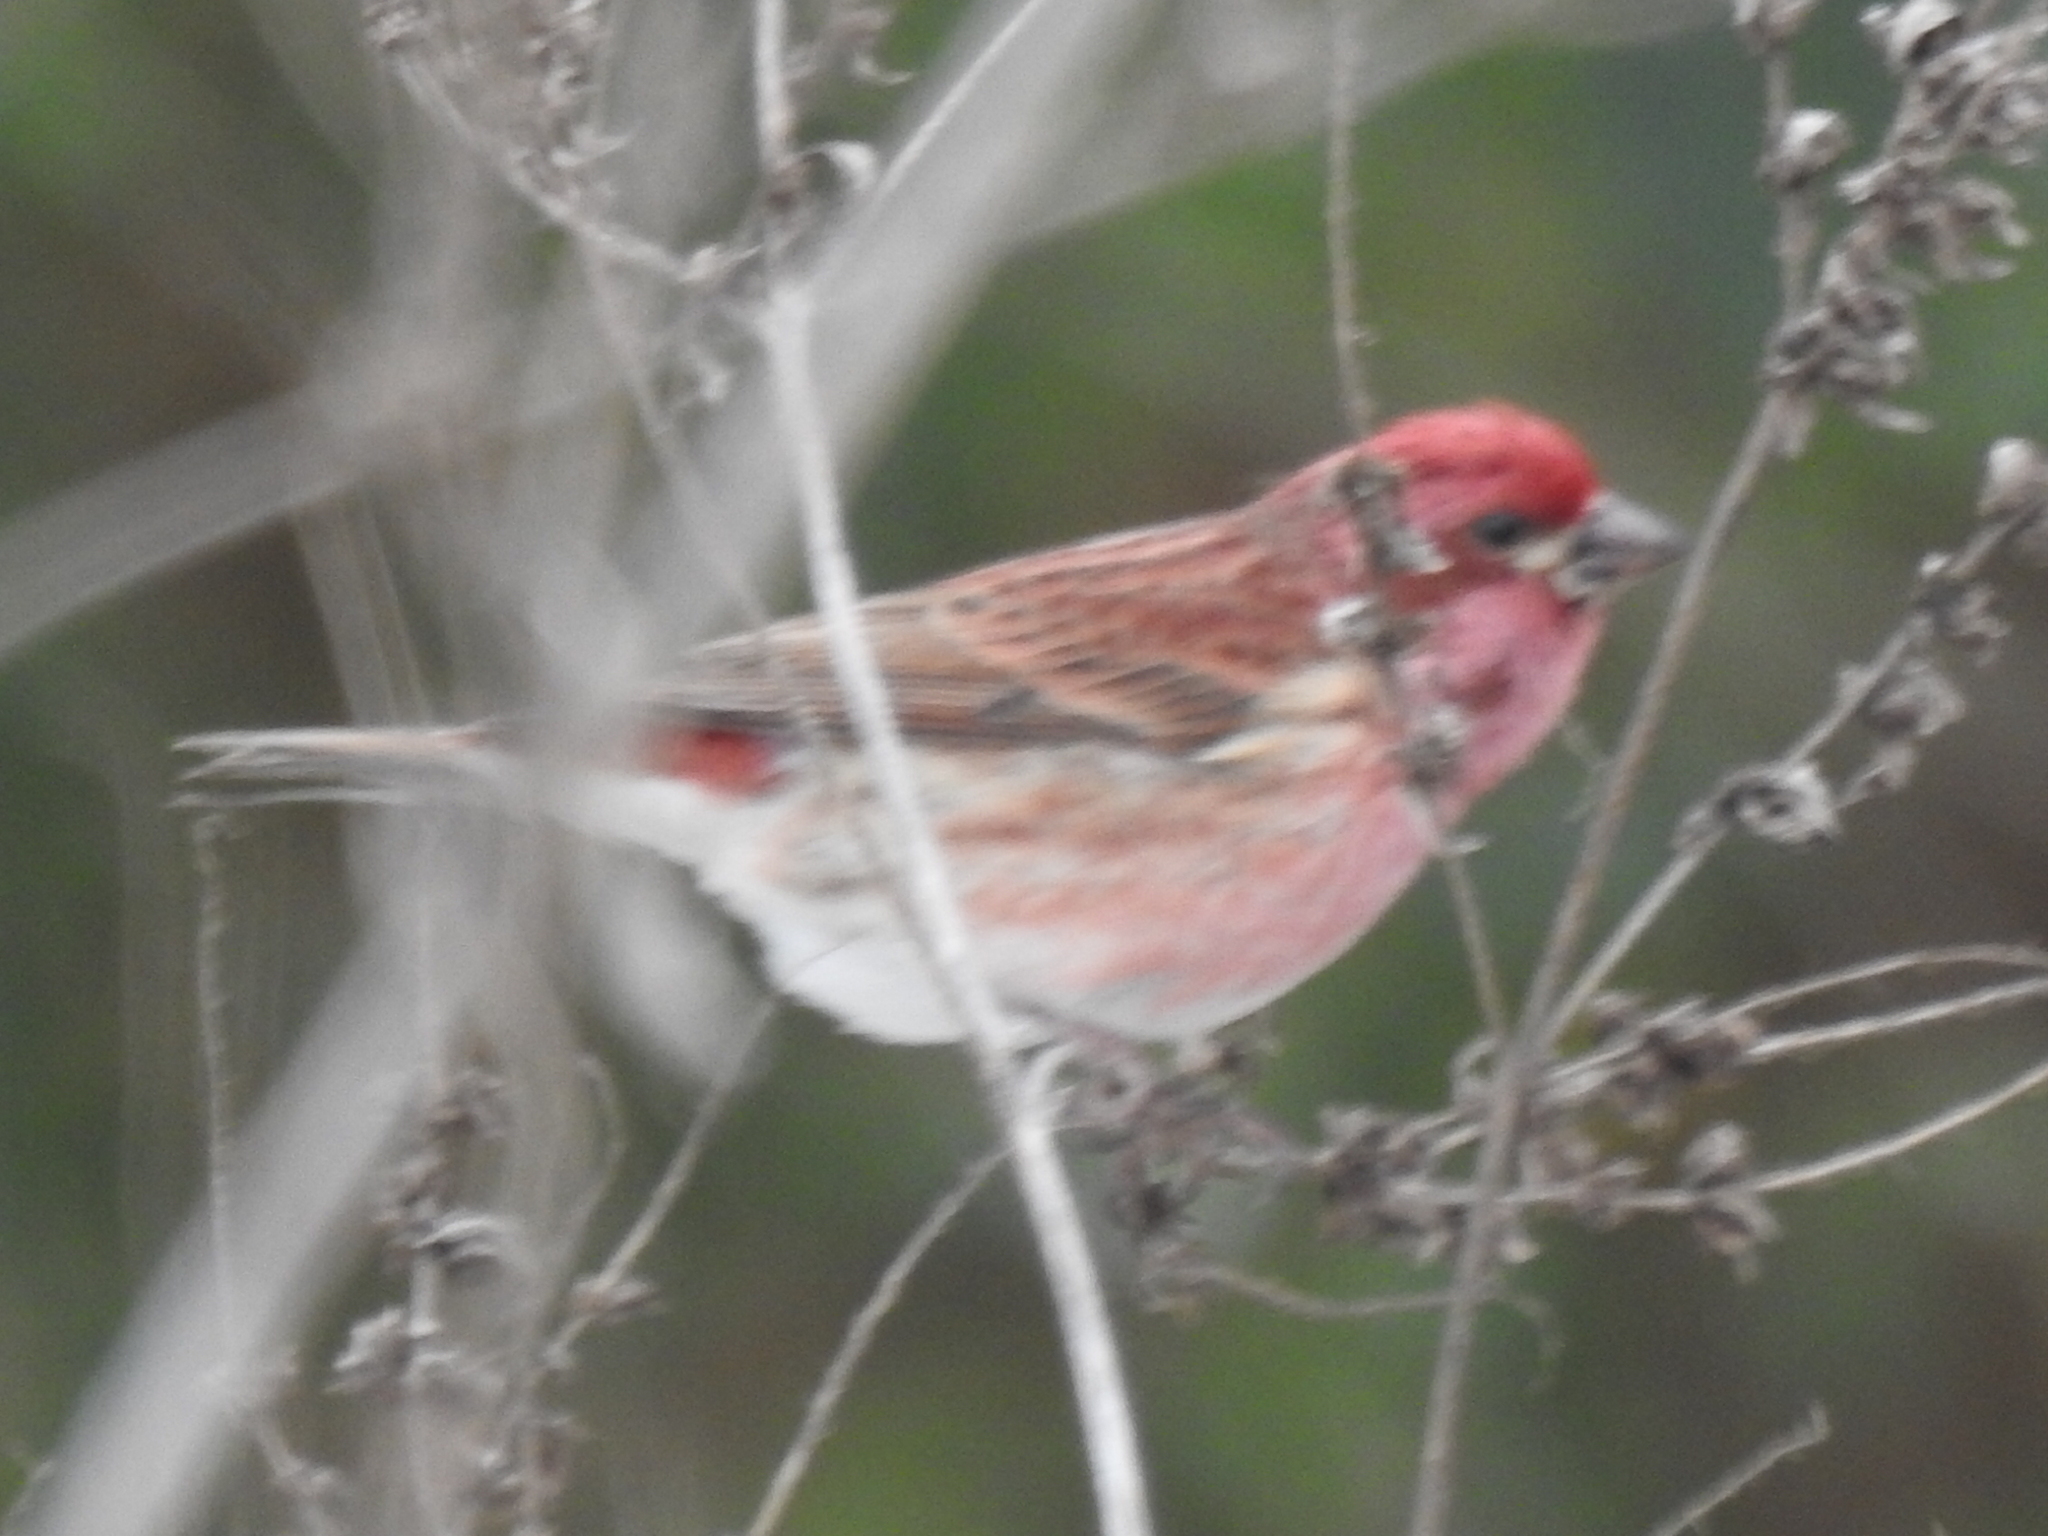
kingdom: Animalia
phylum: Chordata
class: Aves
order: Passeriformes
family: Fringillidae
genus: Haemorhous
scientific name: Haemorhous purpureus
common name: Purple finch
